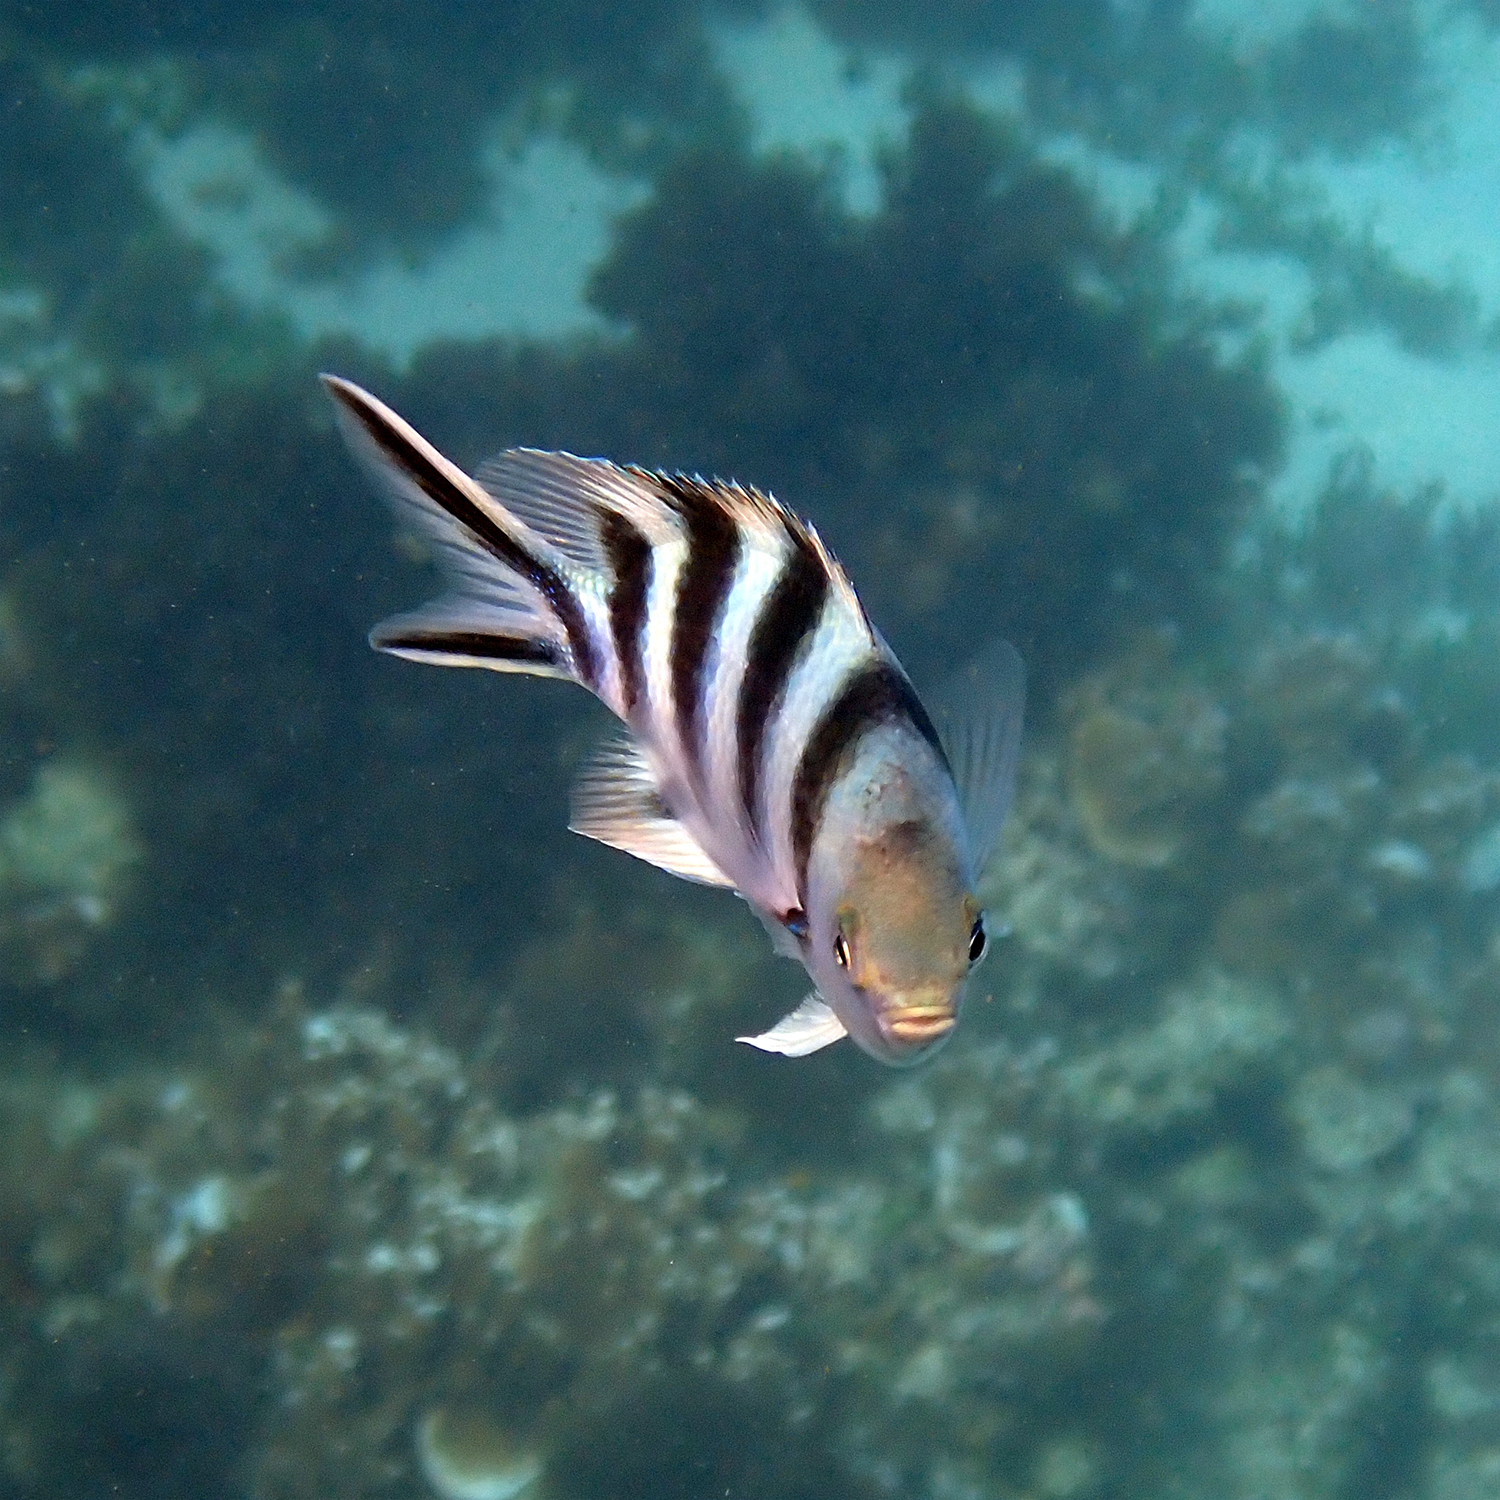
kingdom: Animalia
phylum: Chordata
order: Perciformes
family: Pomacentridae
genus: Abudefduf
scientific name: Abudefduf sexfasciatus
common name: Scissortail sergeant
